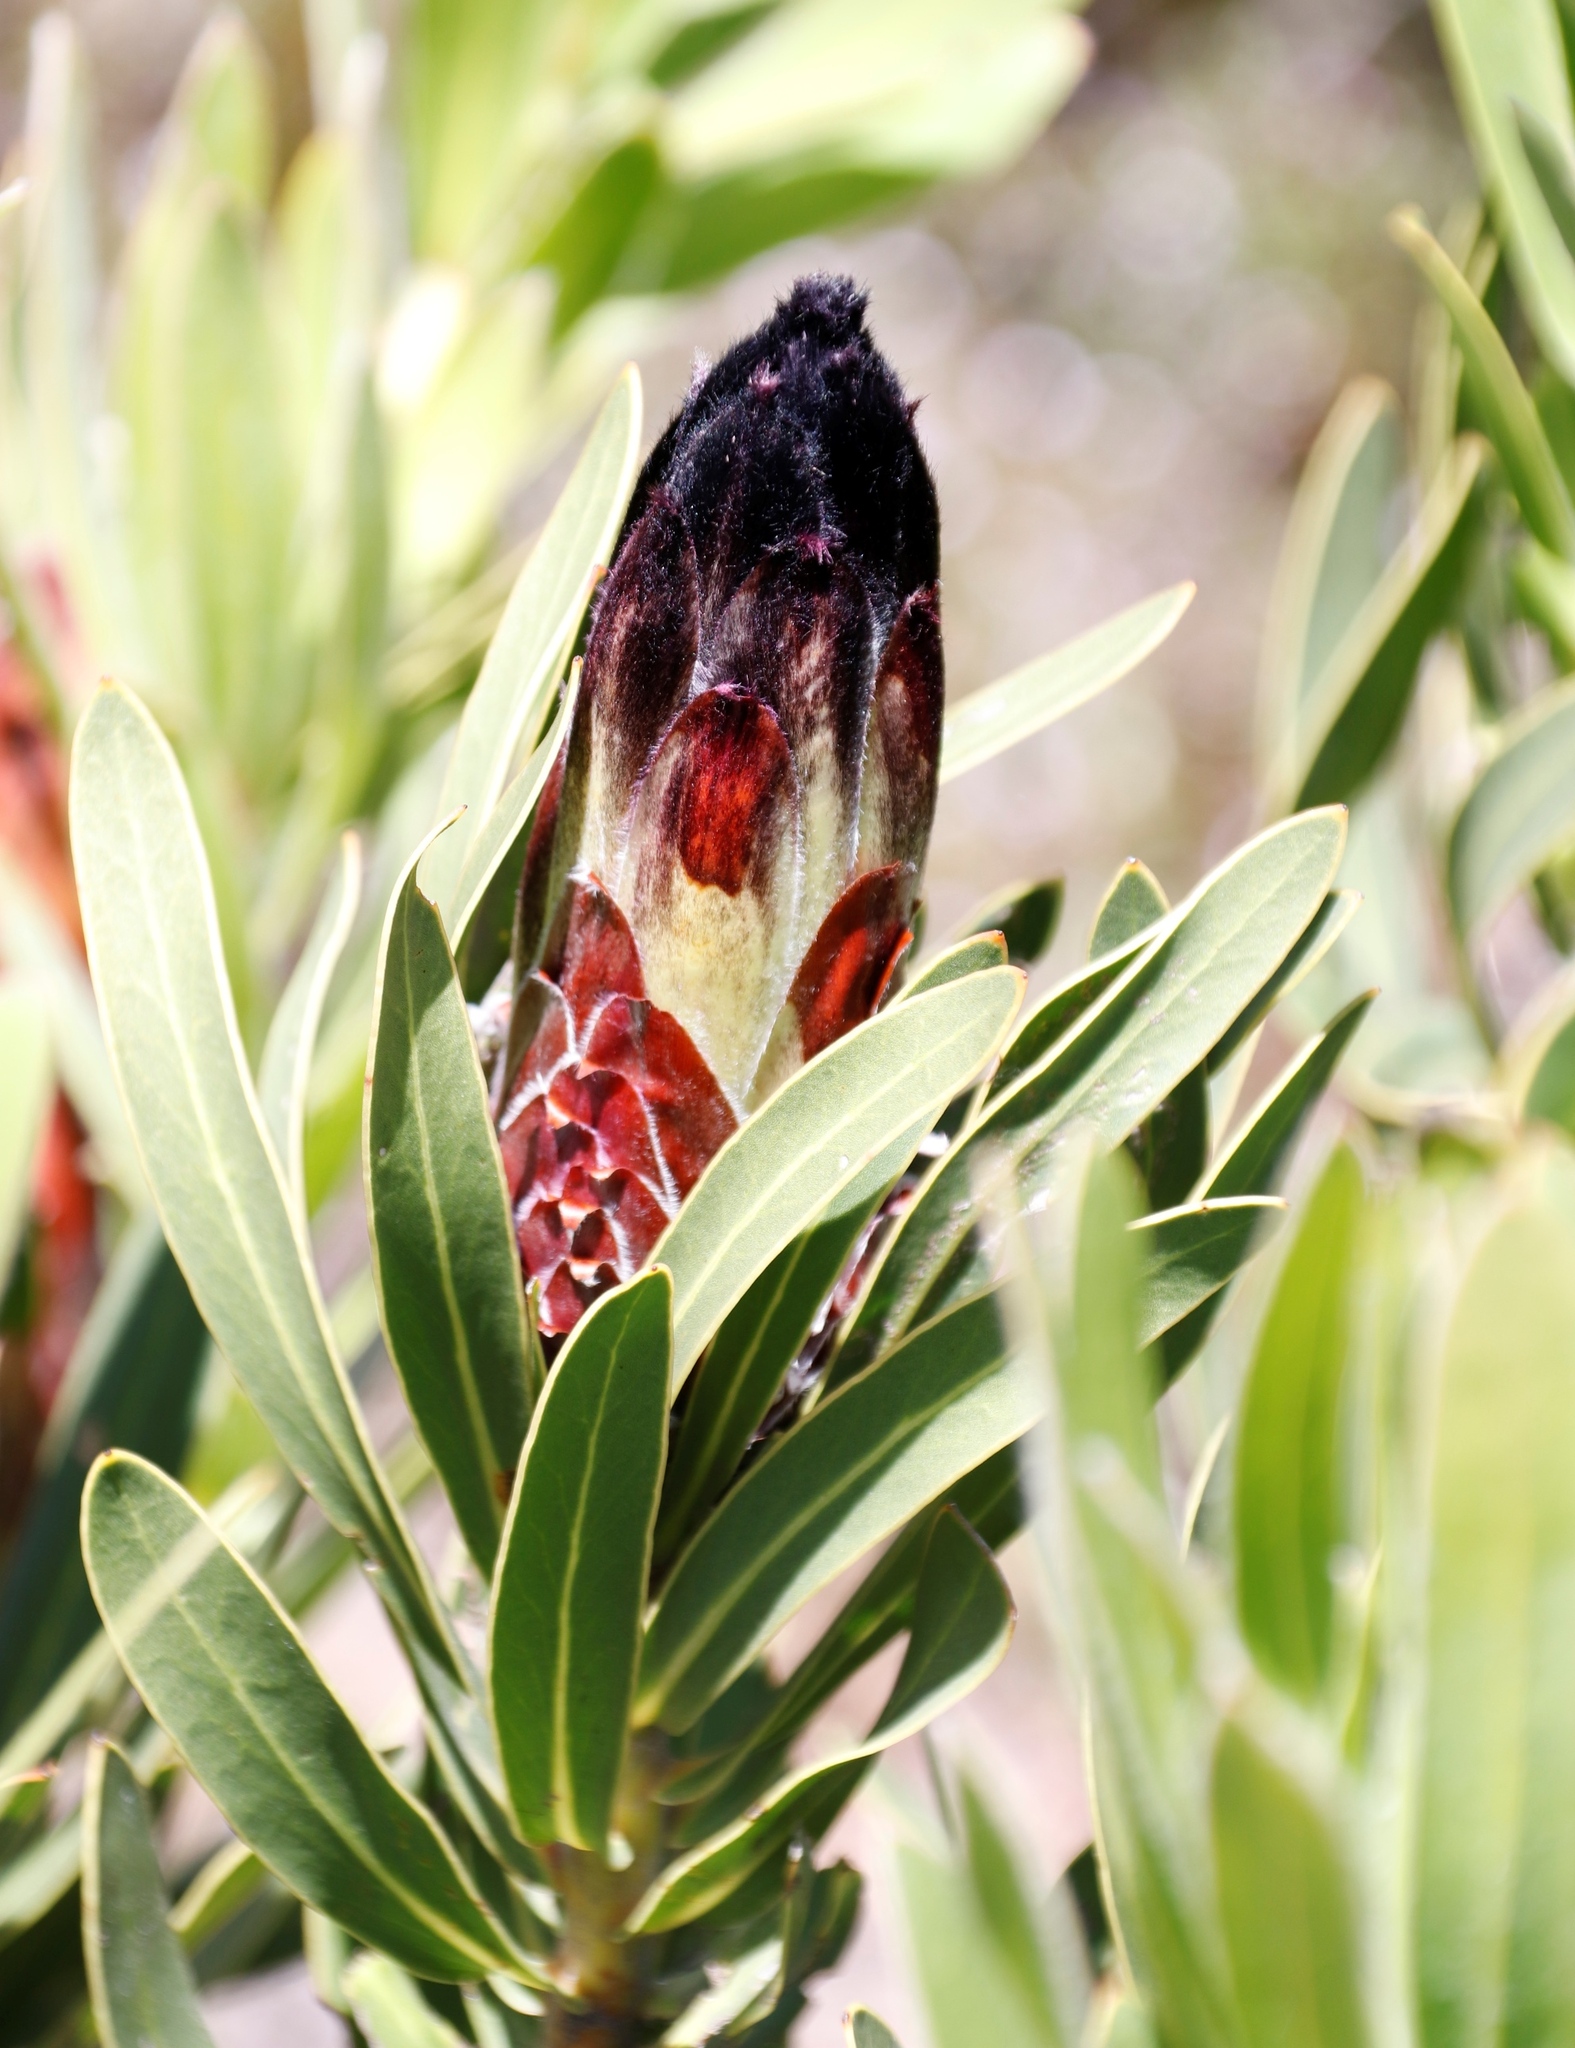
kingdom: Plantae
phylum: Tracheophyta
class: Magnoliopsida
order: Proteales
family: Proteaceae
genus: Protea
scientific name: Protea lepidocarpodendron
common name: Black-bearded protea
